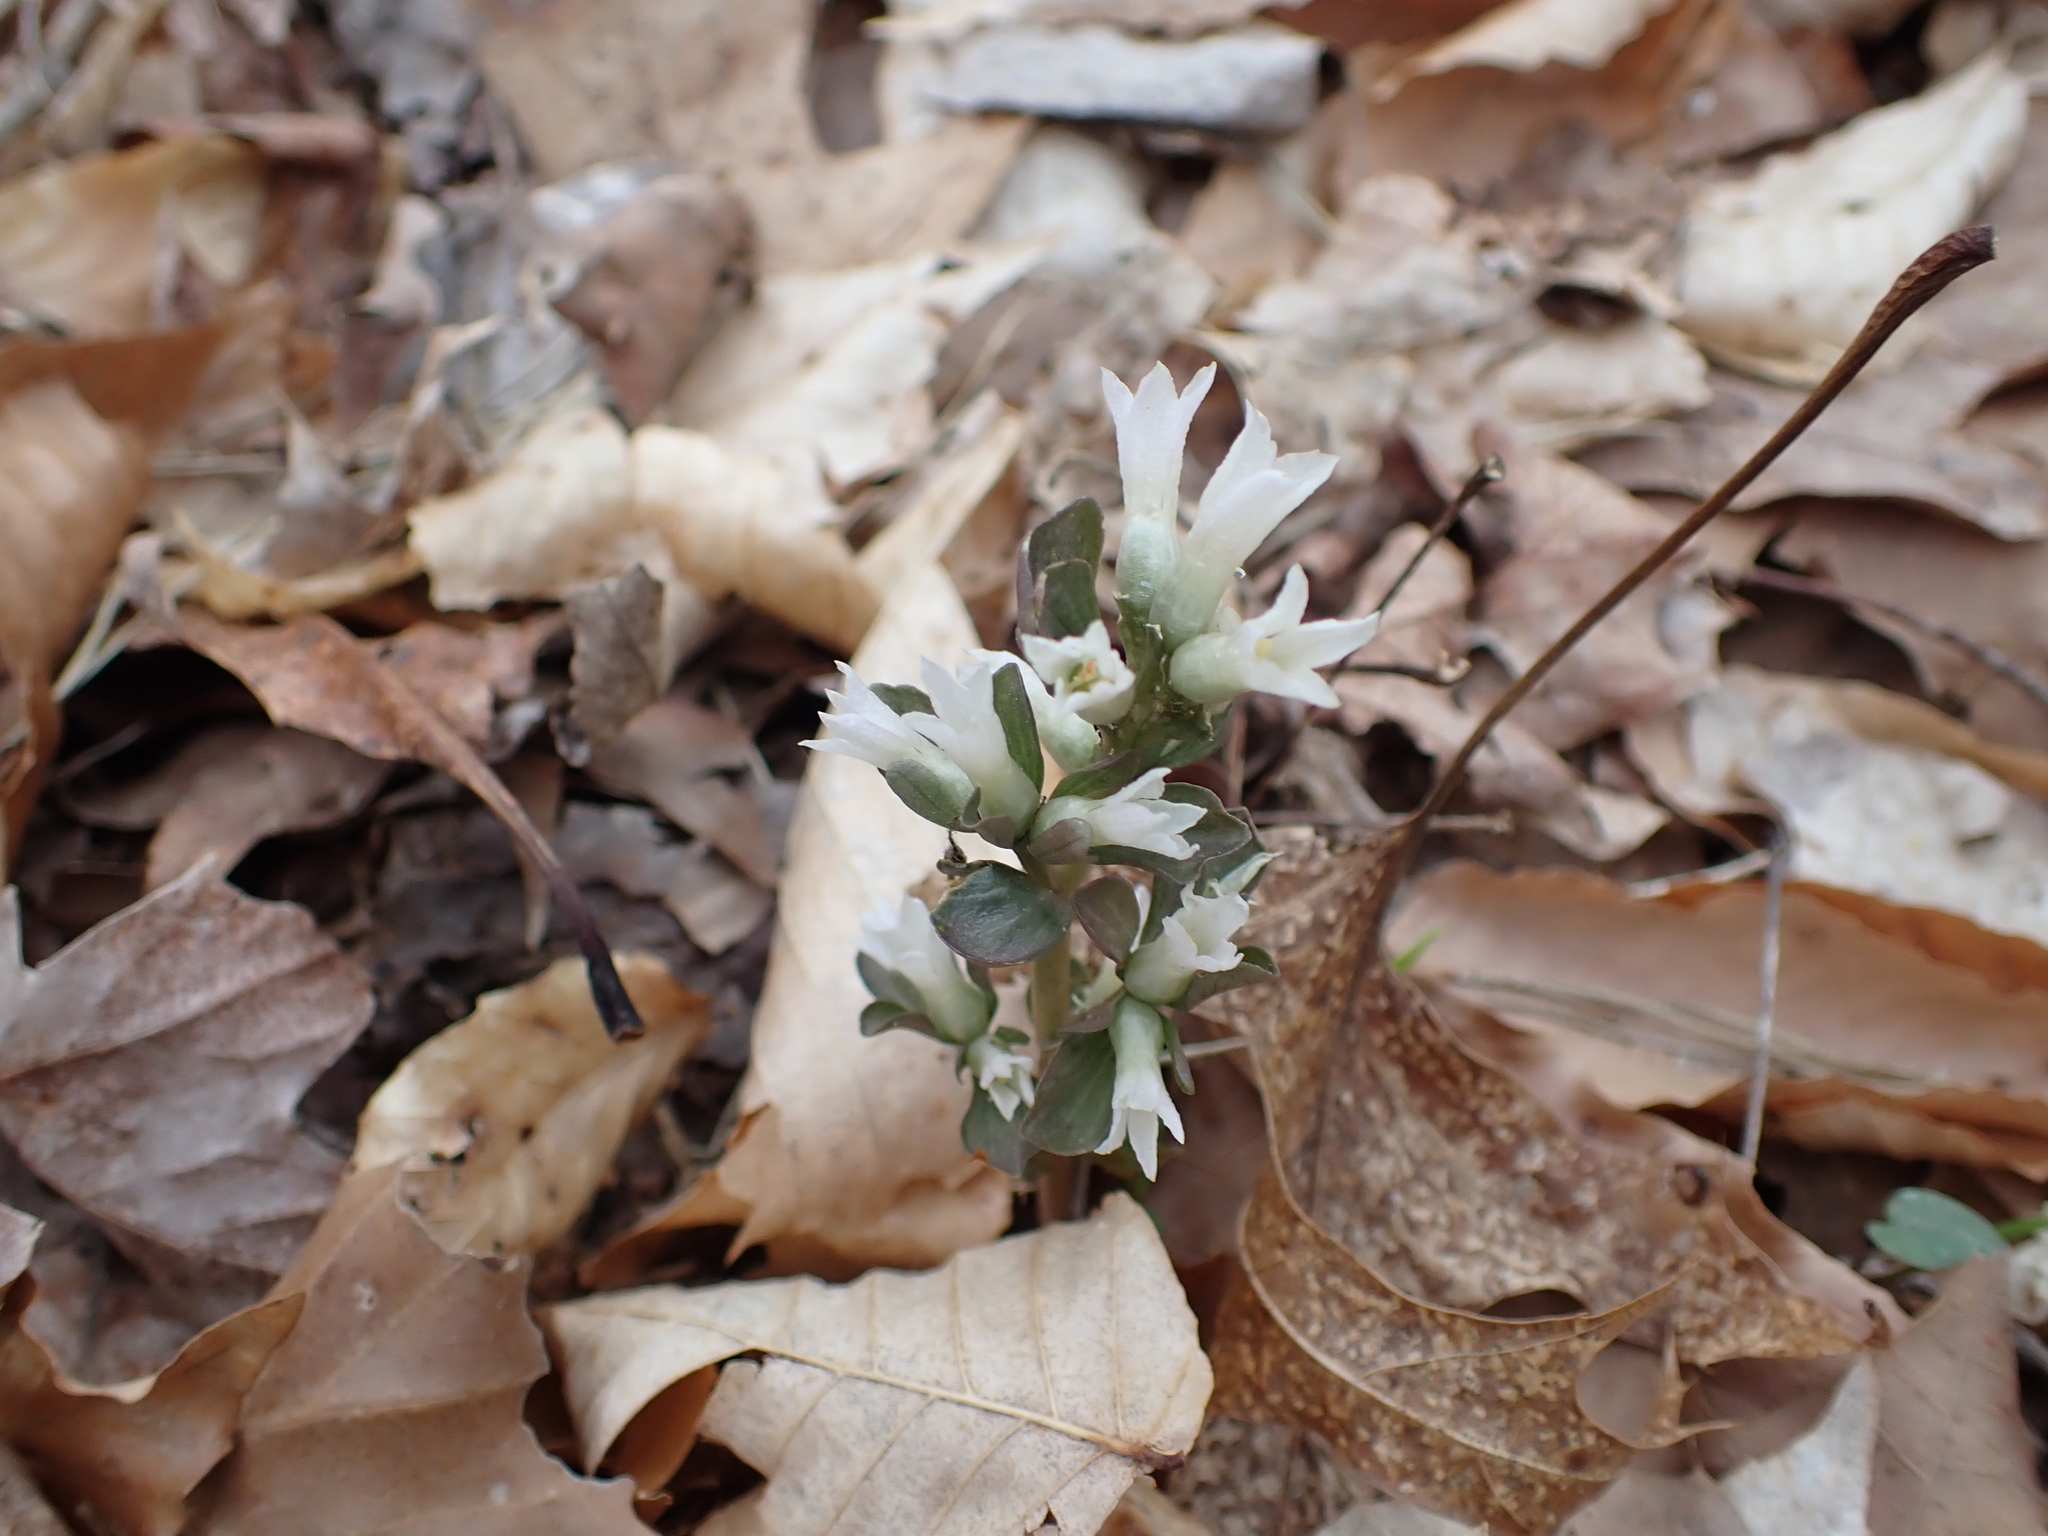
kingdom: Plantae
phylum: Tracheophyta
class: Magnoliopsida
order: Gentianales
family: Gentianaceae
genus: Obolaria
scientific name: Obolaria virginica
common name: Pennywort
